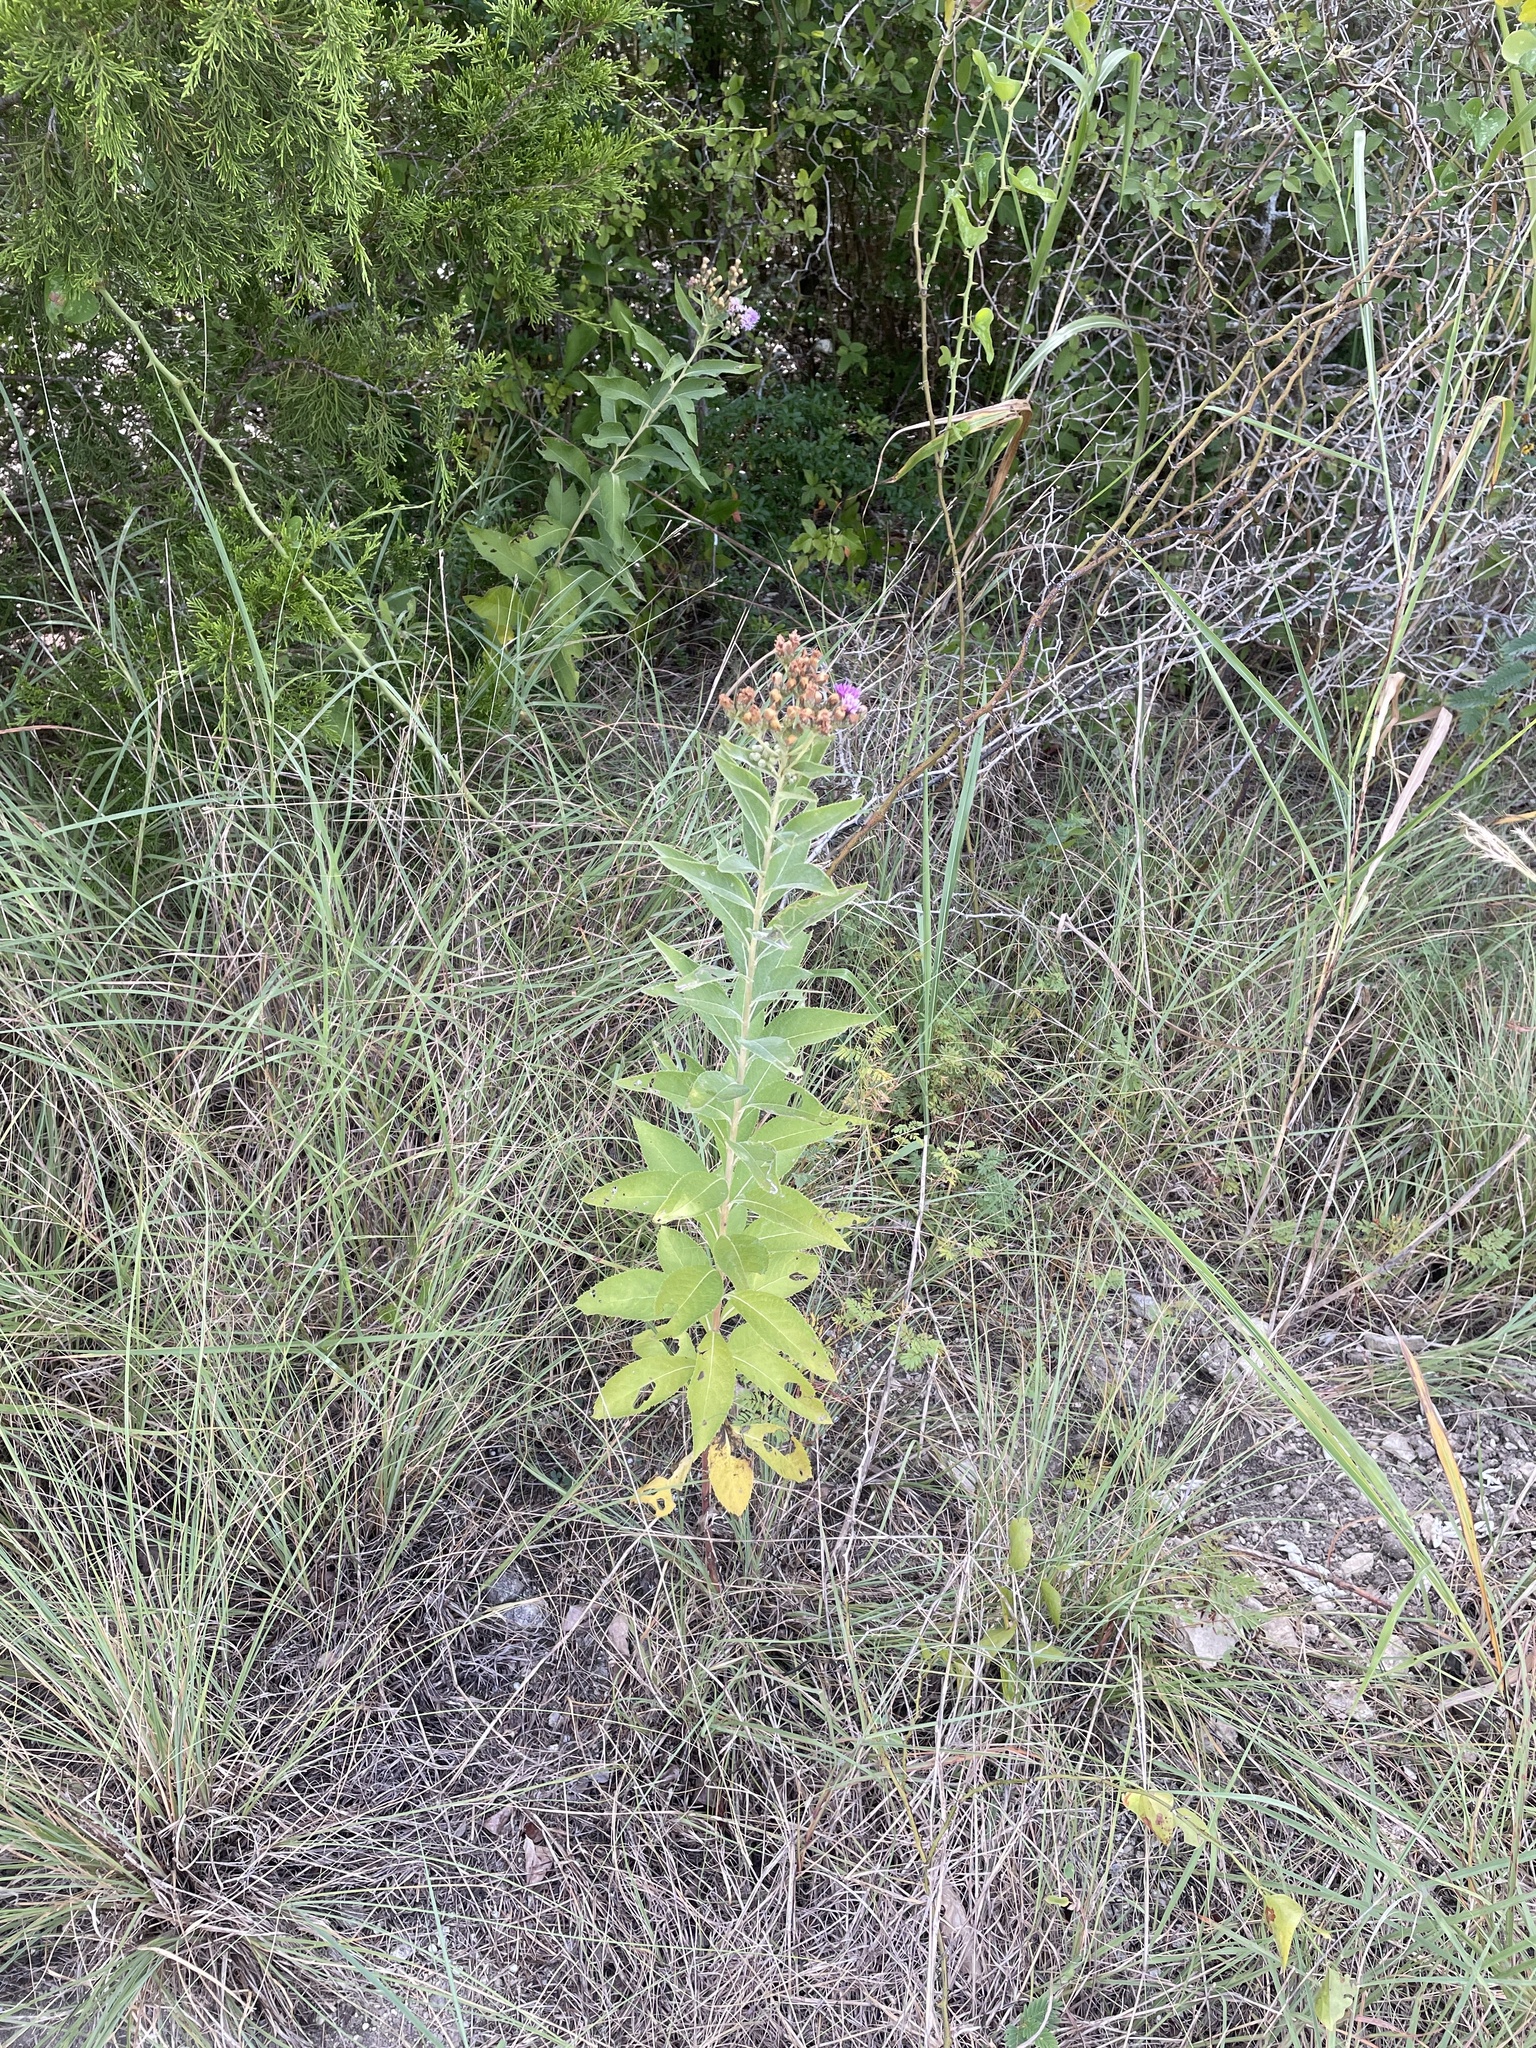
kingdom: Plantae
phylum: Tracheophyta
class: Magnoliopsida
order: Asterales
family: Asteraceae
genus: Vernonia
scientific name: Vernonia baldwinii
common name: Western ironweed
